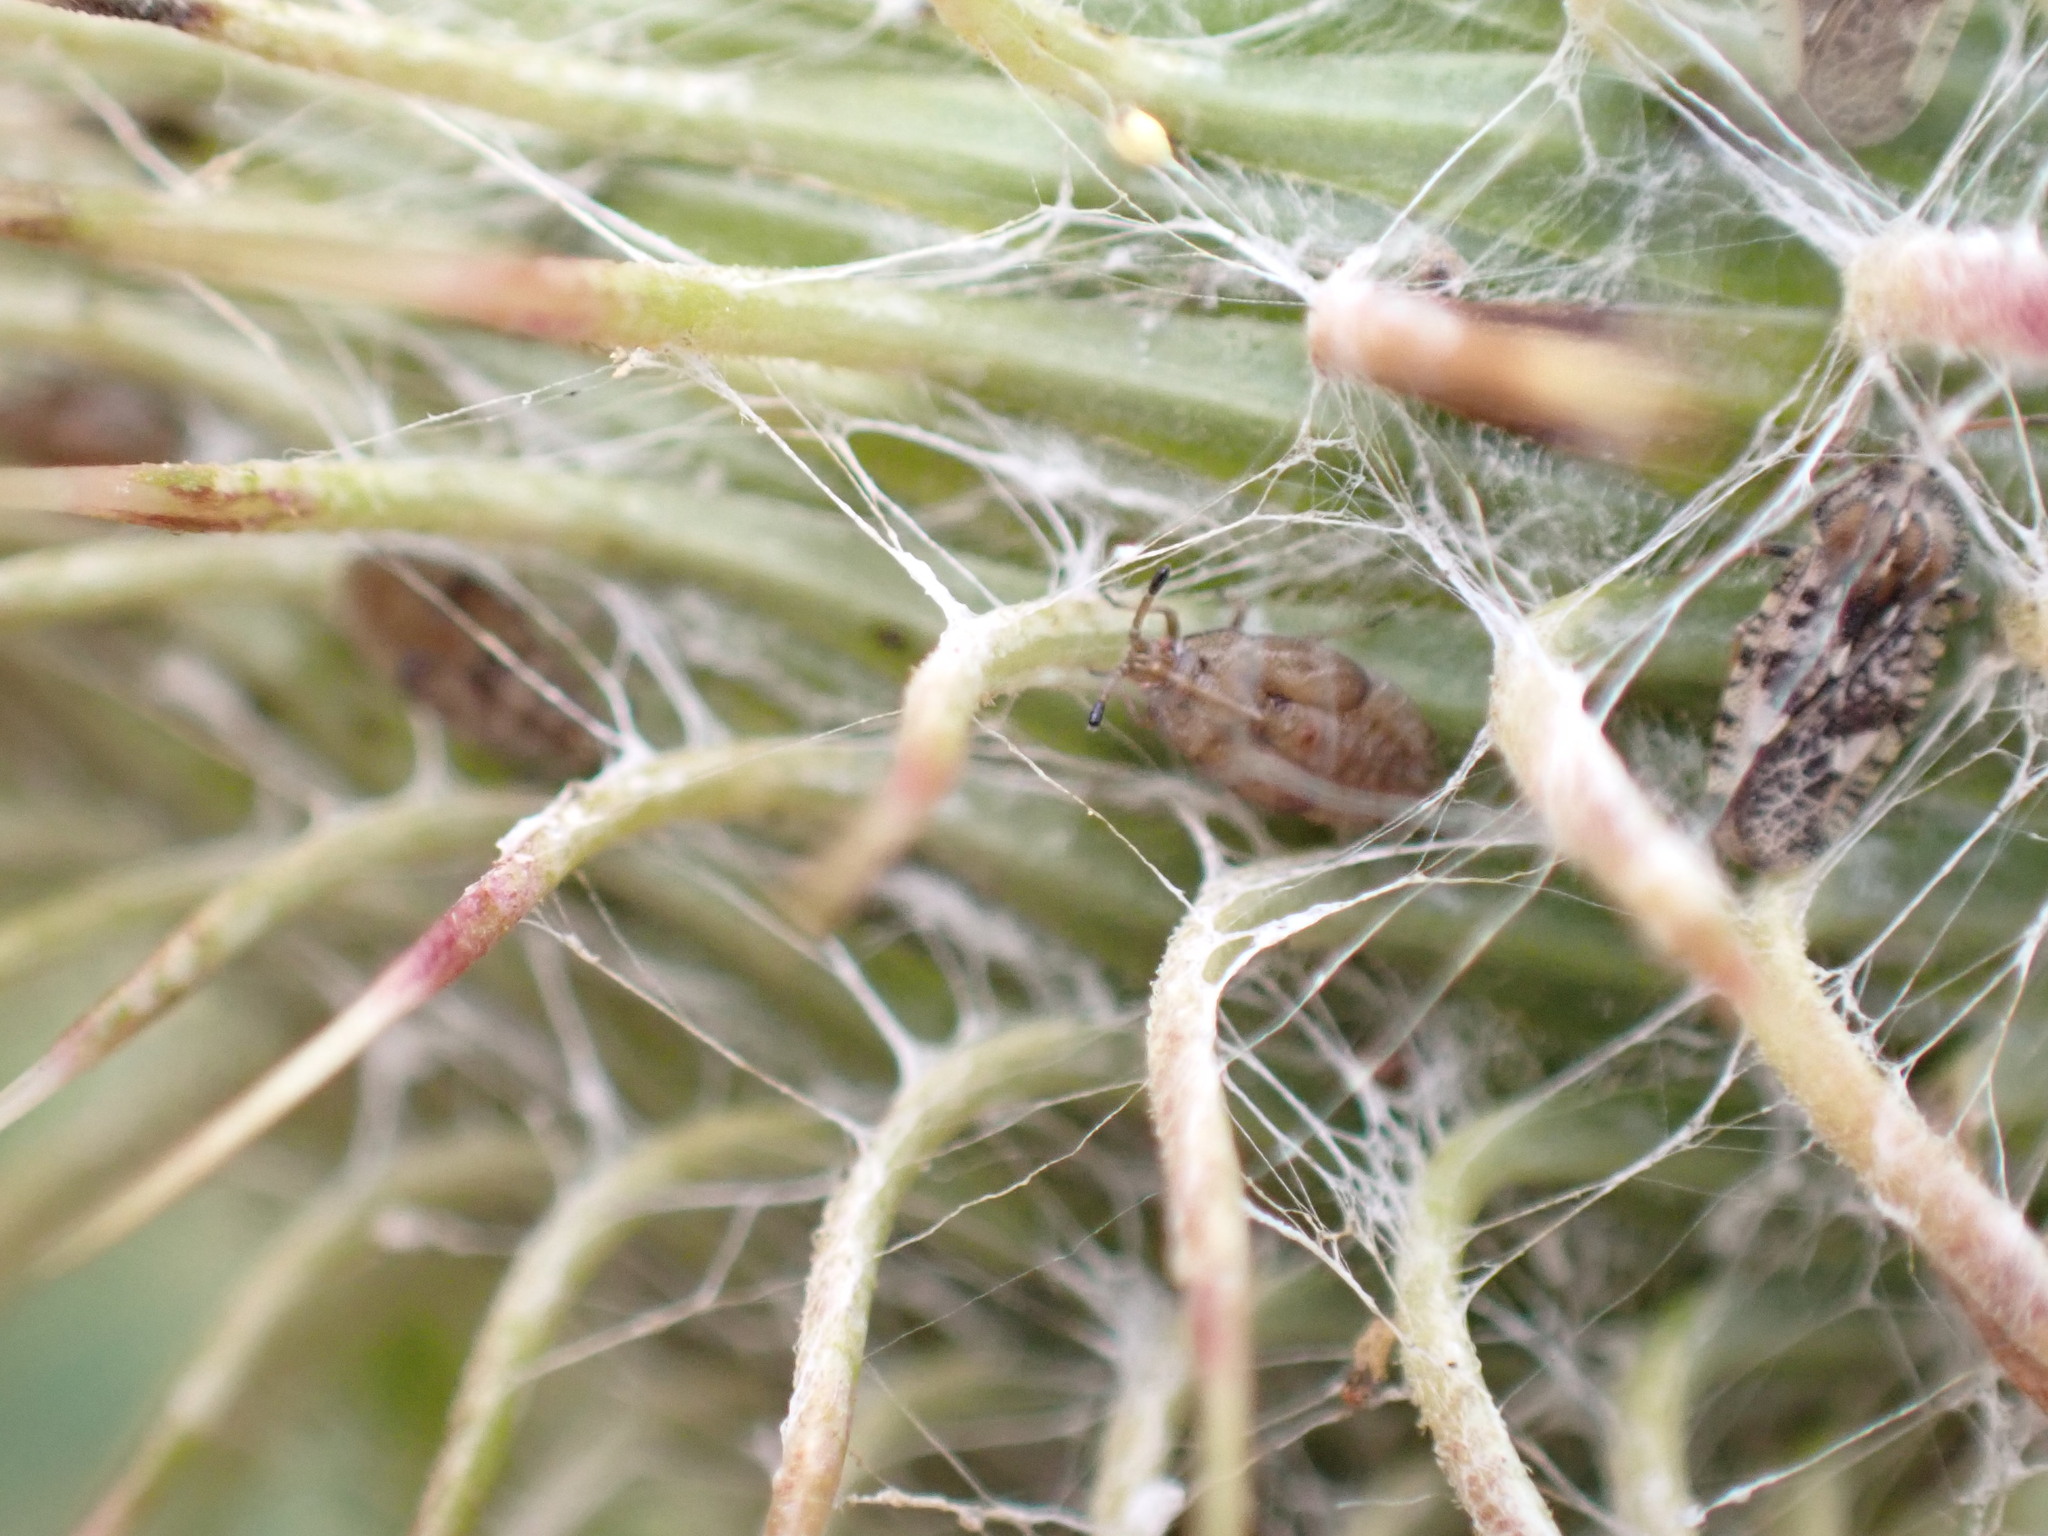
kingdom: Animalia
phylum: Arthropoda
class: Insecta
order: Hemiptera
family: Tingidae
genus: Tingis
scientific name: Tingis cardui
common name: Spear thistle lacebug
